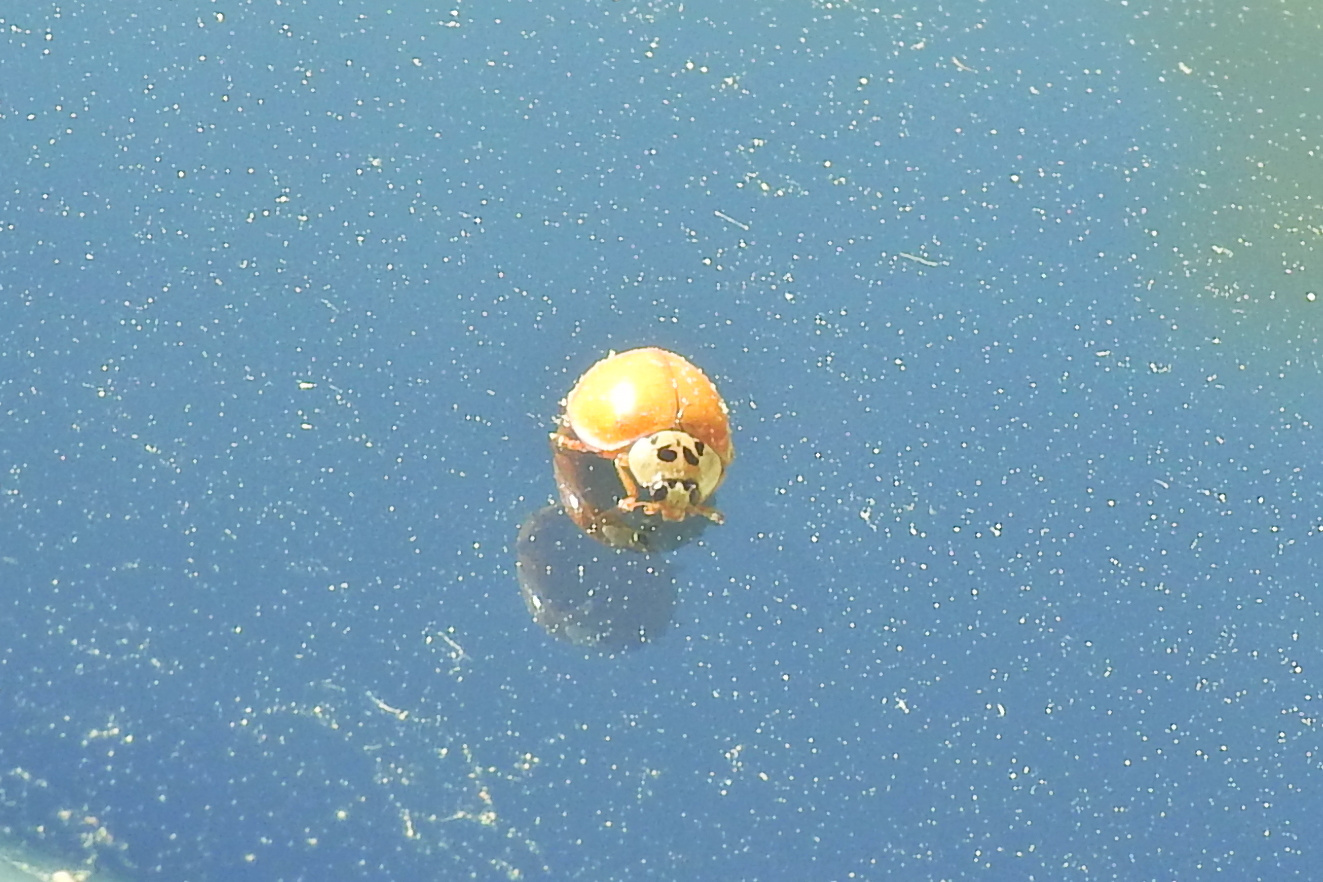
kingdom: Animalia
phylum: Arthropoda
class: Insecta
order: Coleoptera
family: Coccinellidae
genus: Harmonia
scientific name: Harmonia axyridis
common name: Harlequin ladybird
